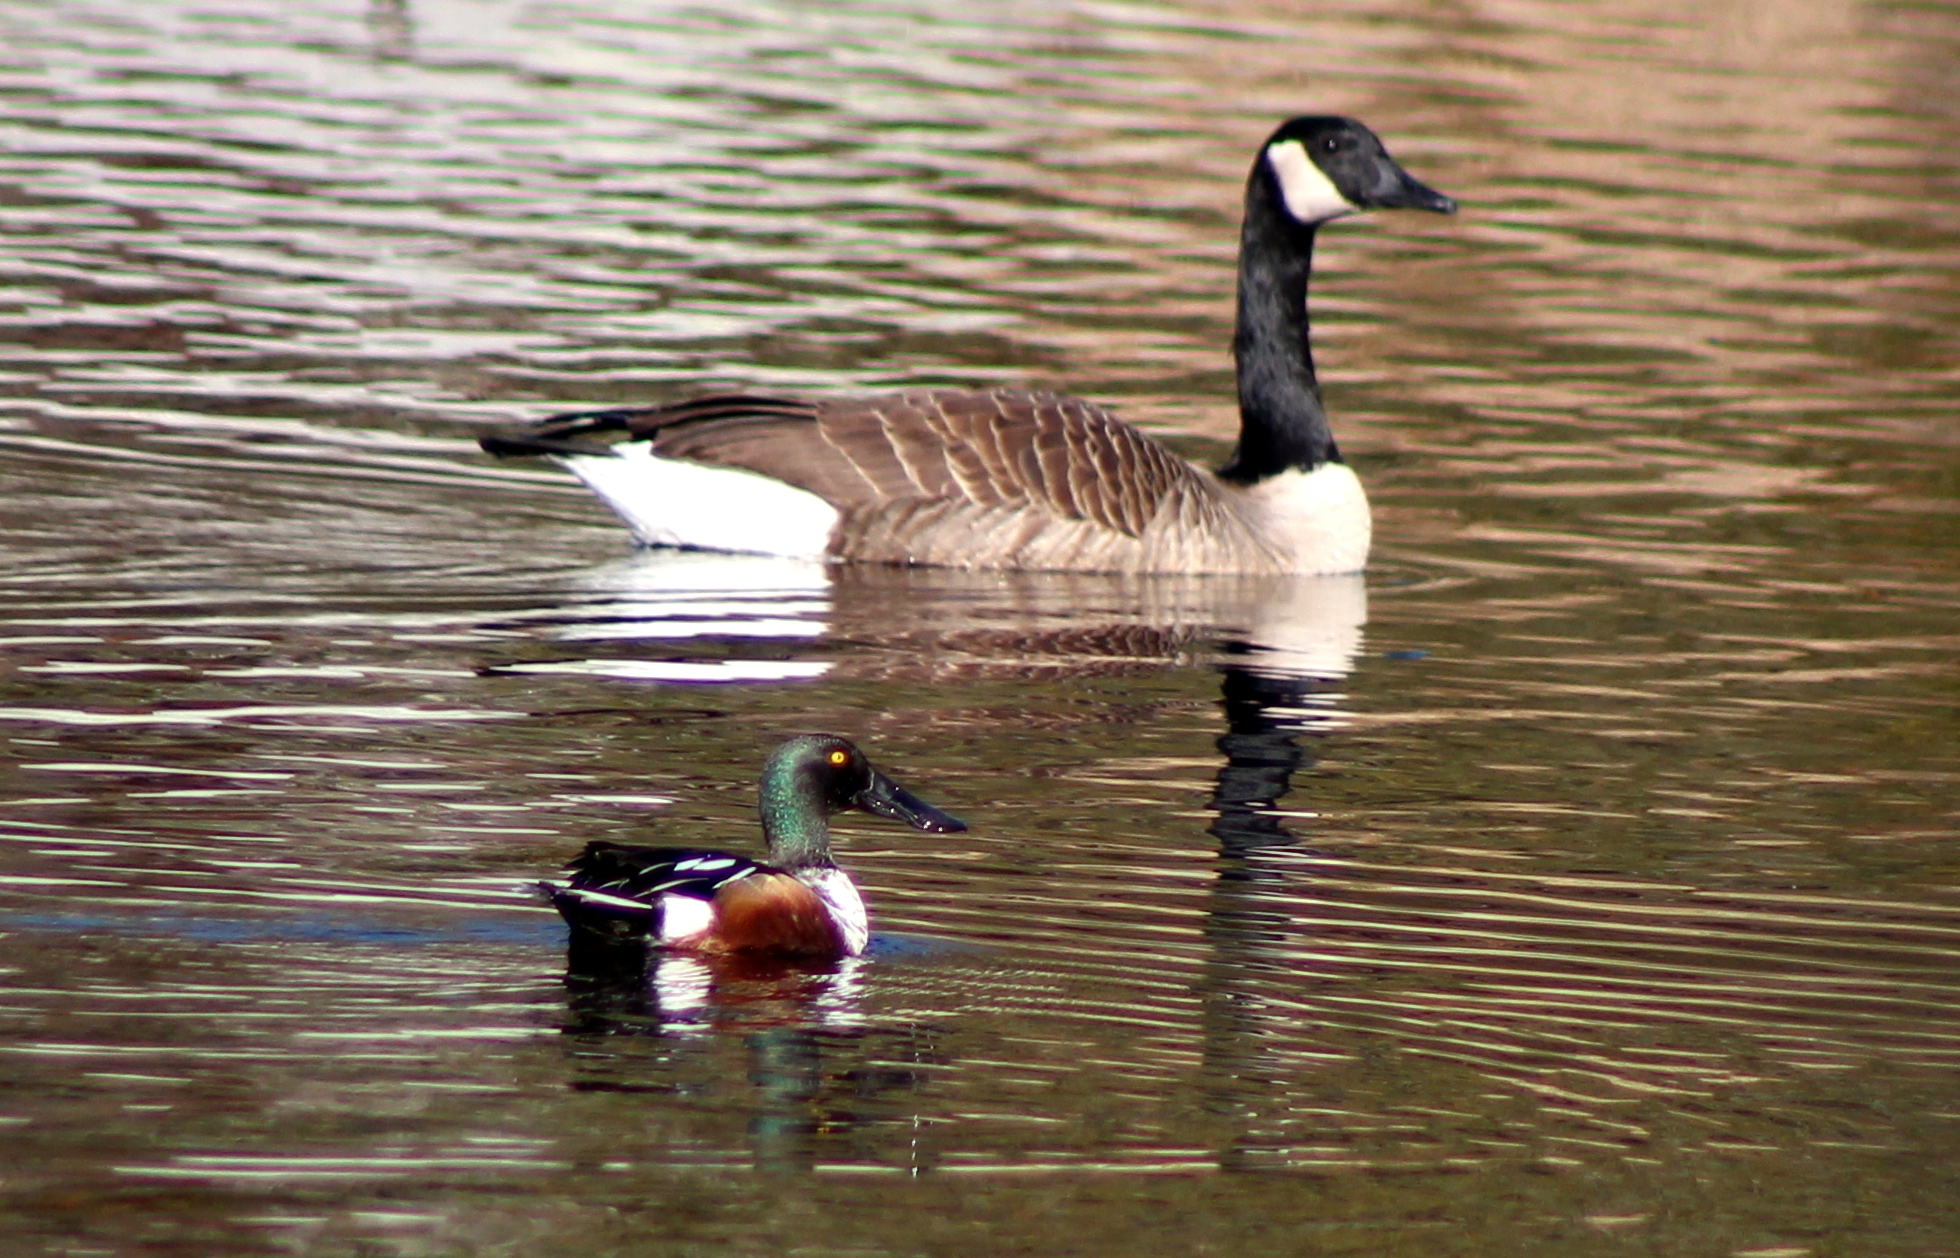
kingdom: Animalia
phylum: Chordata
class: Aves
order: Anseriformes
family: Anatidae
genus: Spatula
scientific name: Spatula clypeata
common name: Northern shoveler
